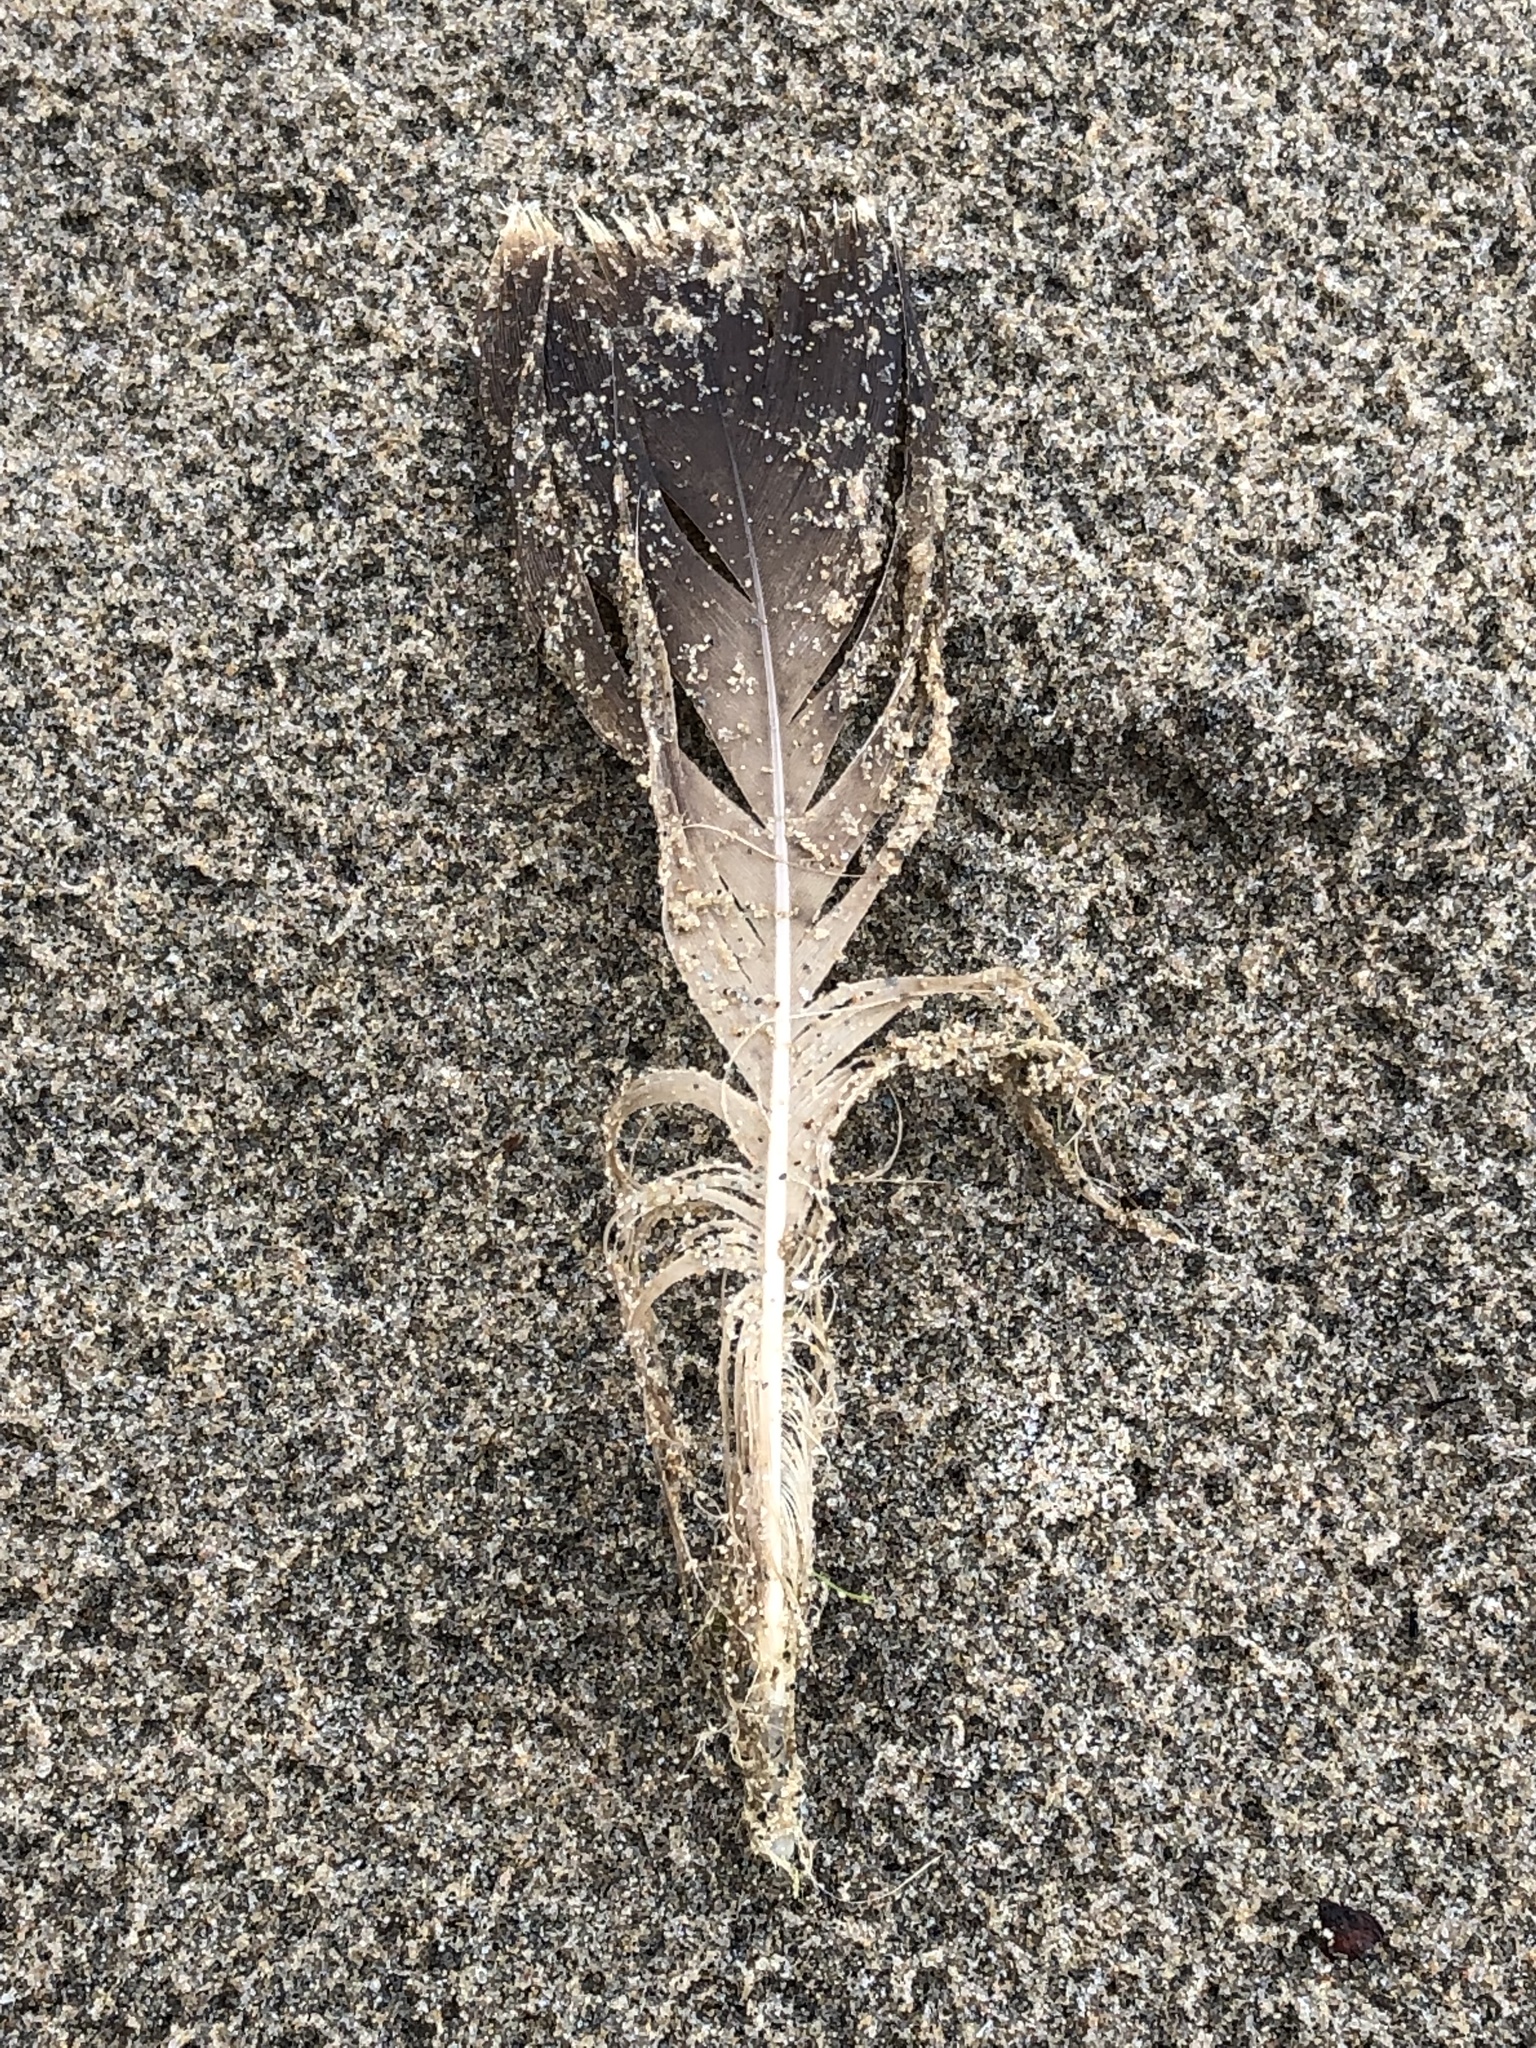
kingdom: Animalia
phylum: Chordata
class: Aves
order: Anseriformes
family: Anatidae
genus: Branta
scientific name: Branta canadensis
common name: Canada goose
